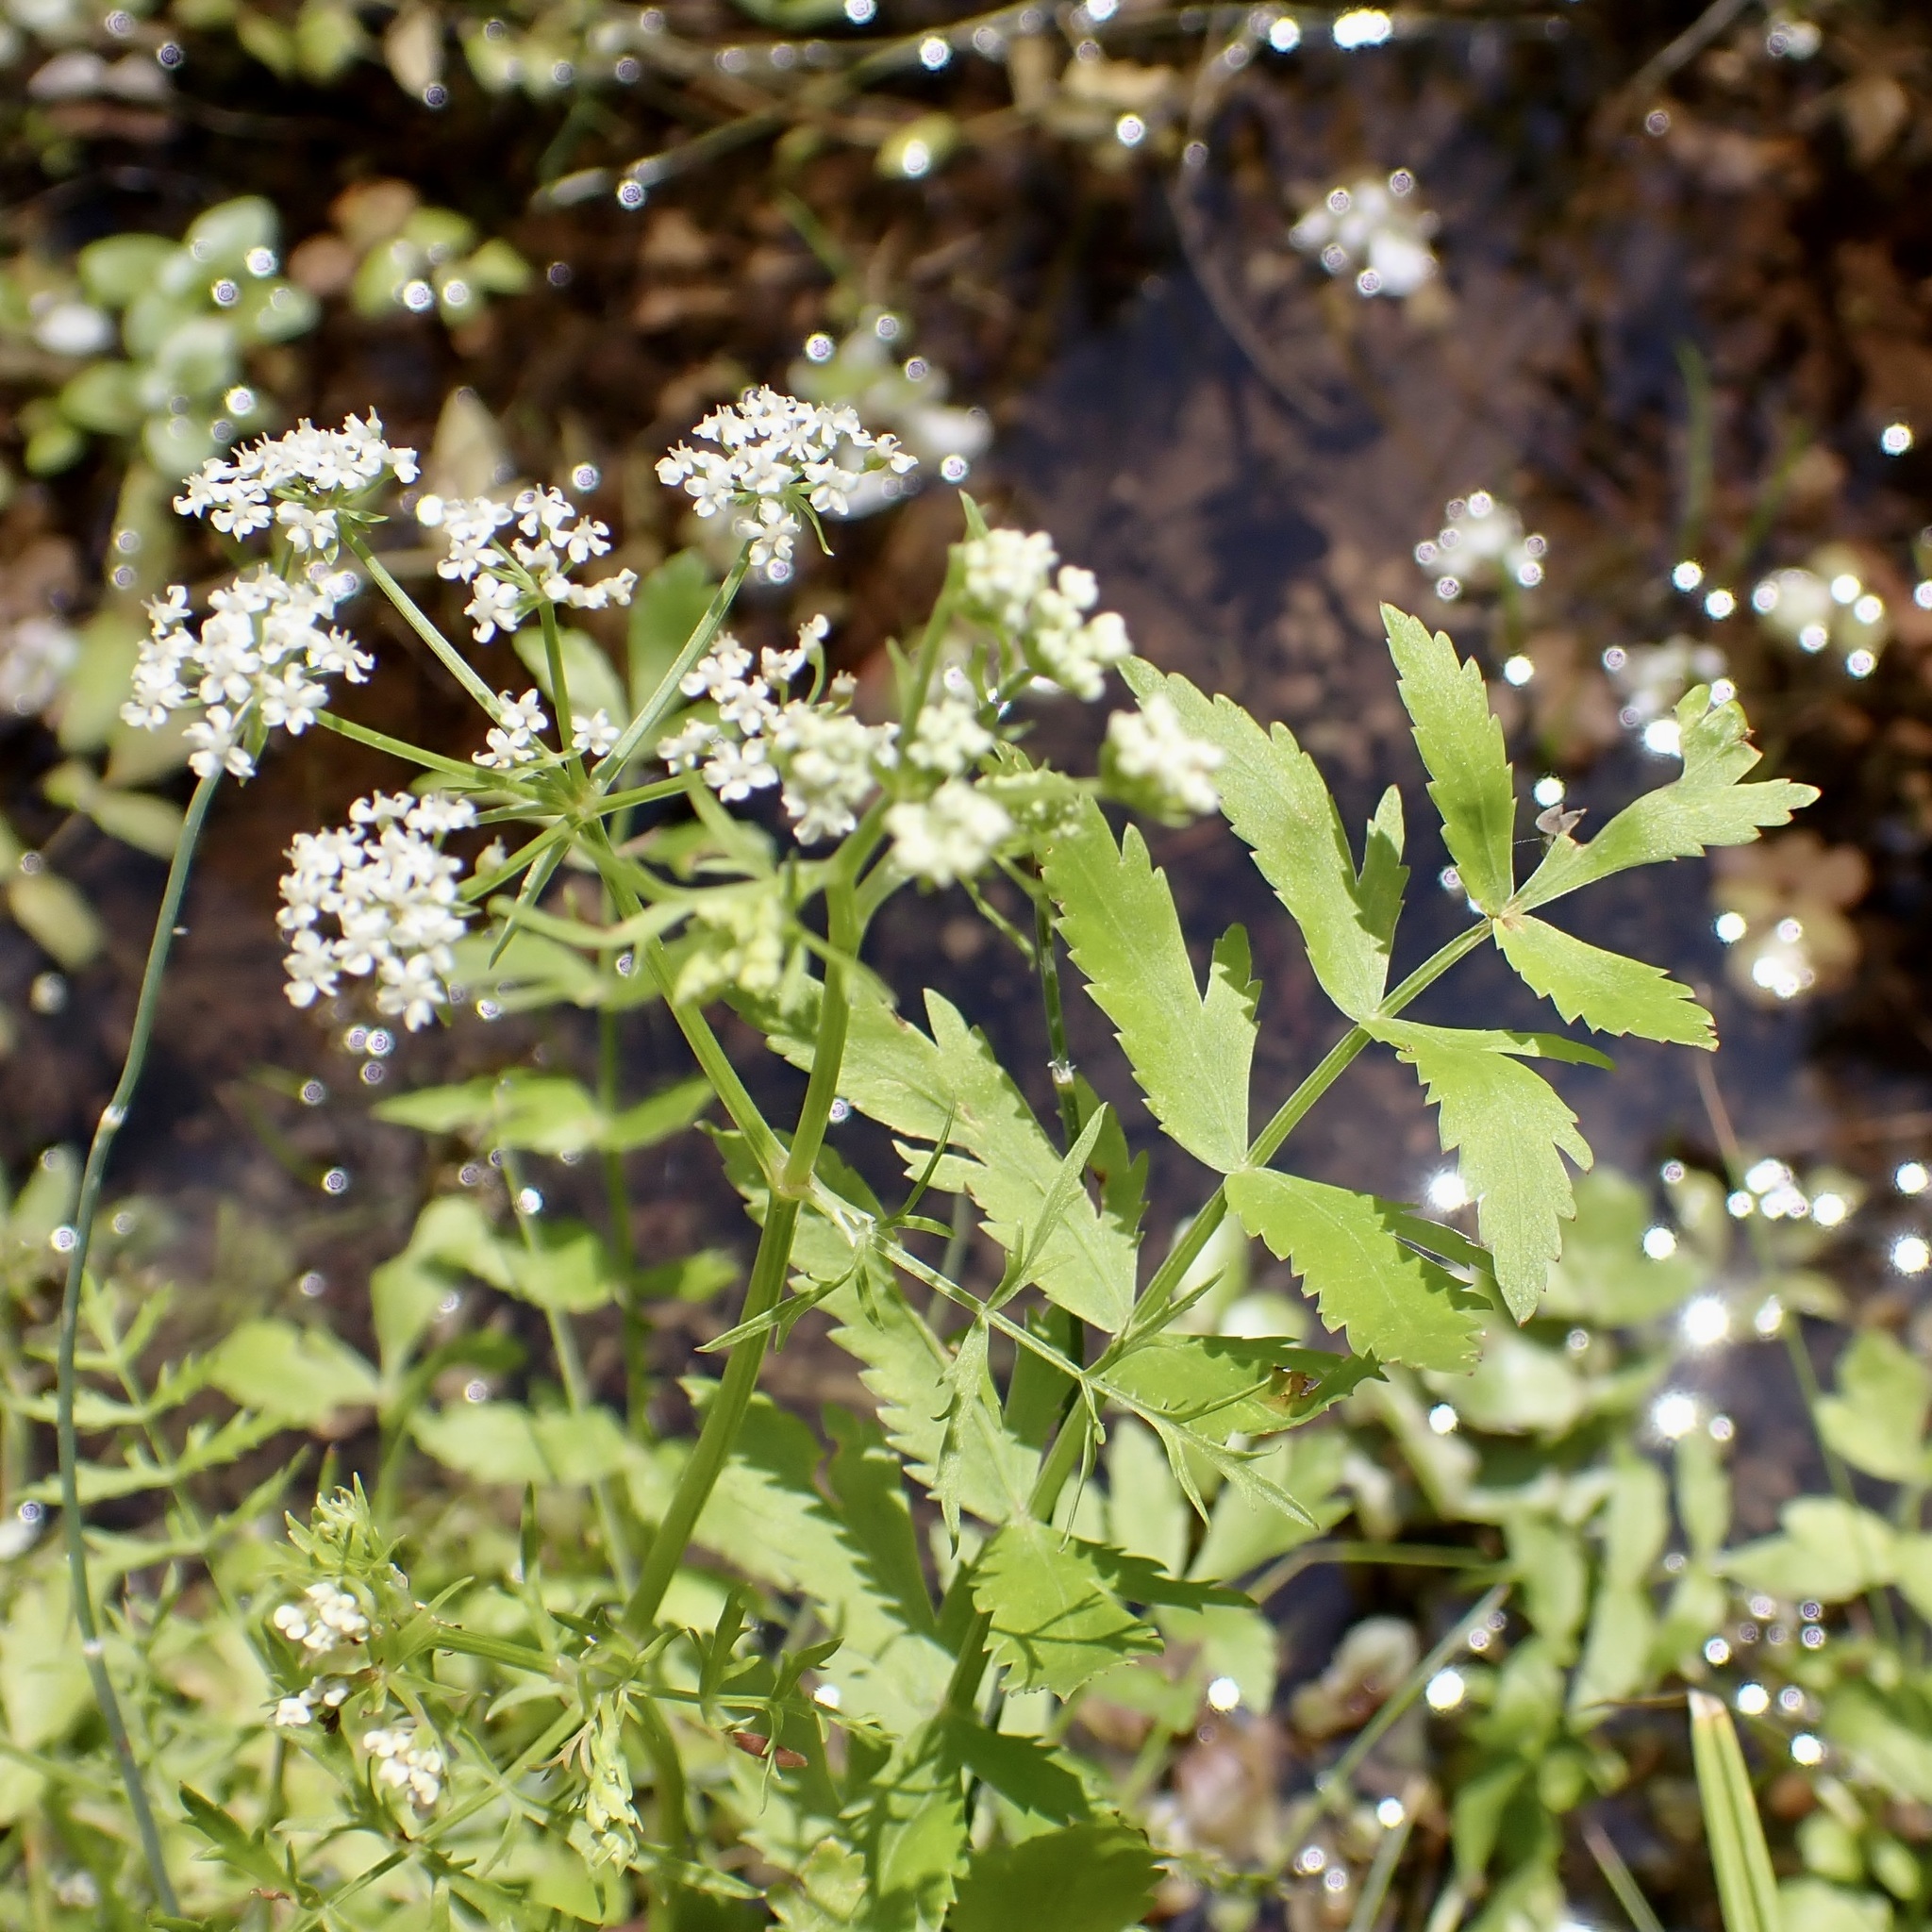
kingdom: Plantae
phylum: Tracheophyta
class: Magnoliopsida
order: Apiales
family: Apiaceae
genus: Berula
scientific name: Berula erecta
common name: Lesser water-parsnip
